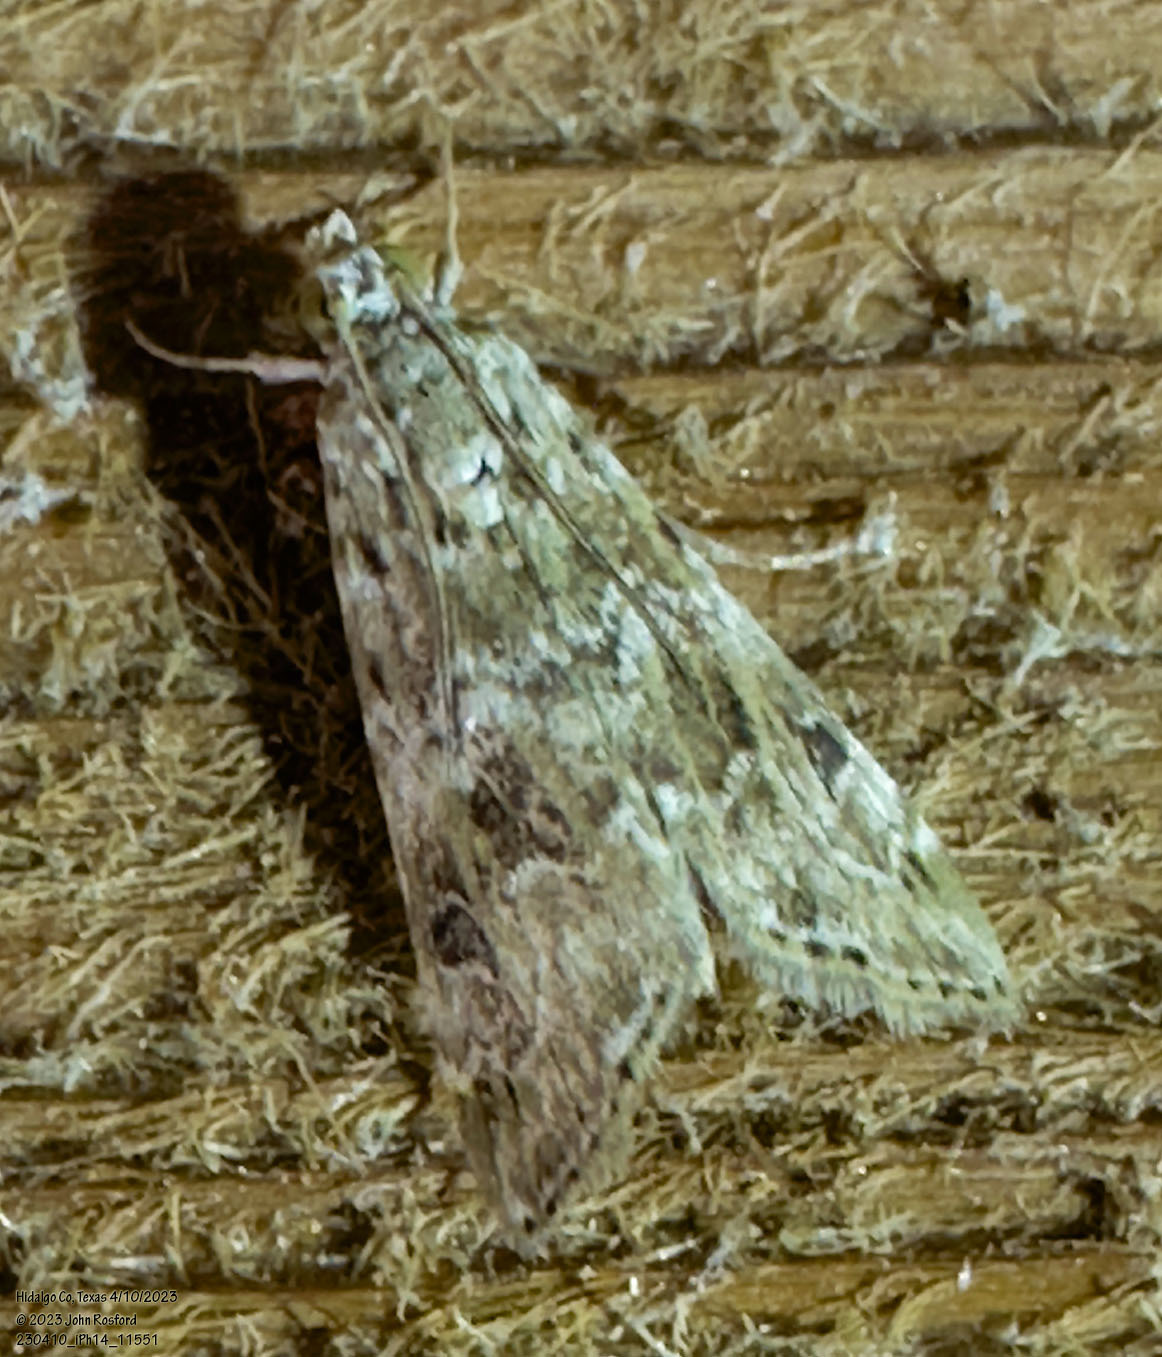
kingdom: Animalia
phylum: Arthropoda
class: Insecta
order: Lepidoptera
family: Crambidae
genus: Hellula
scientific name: Hellula rogatalis
